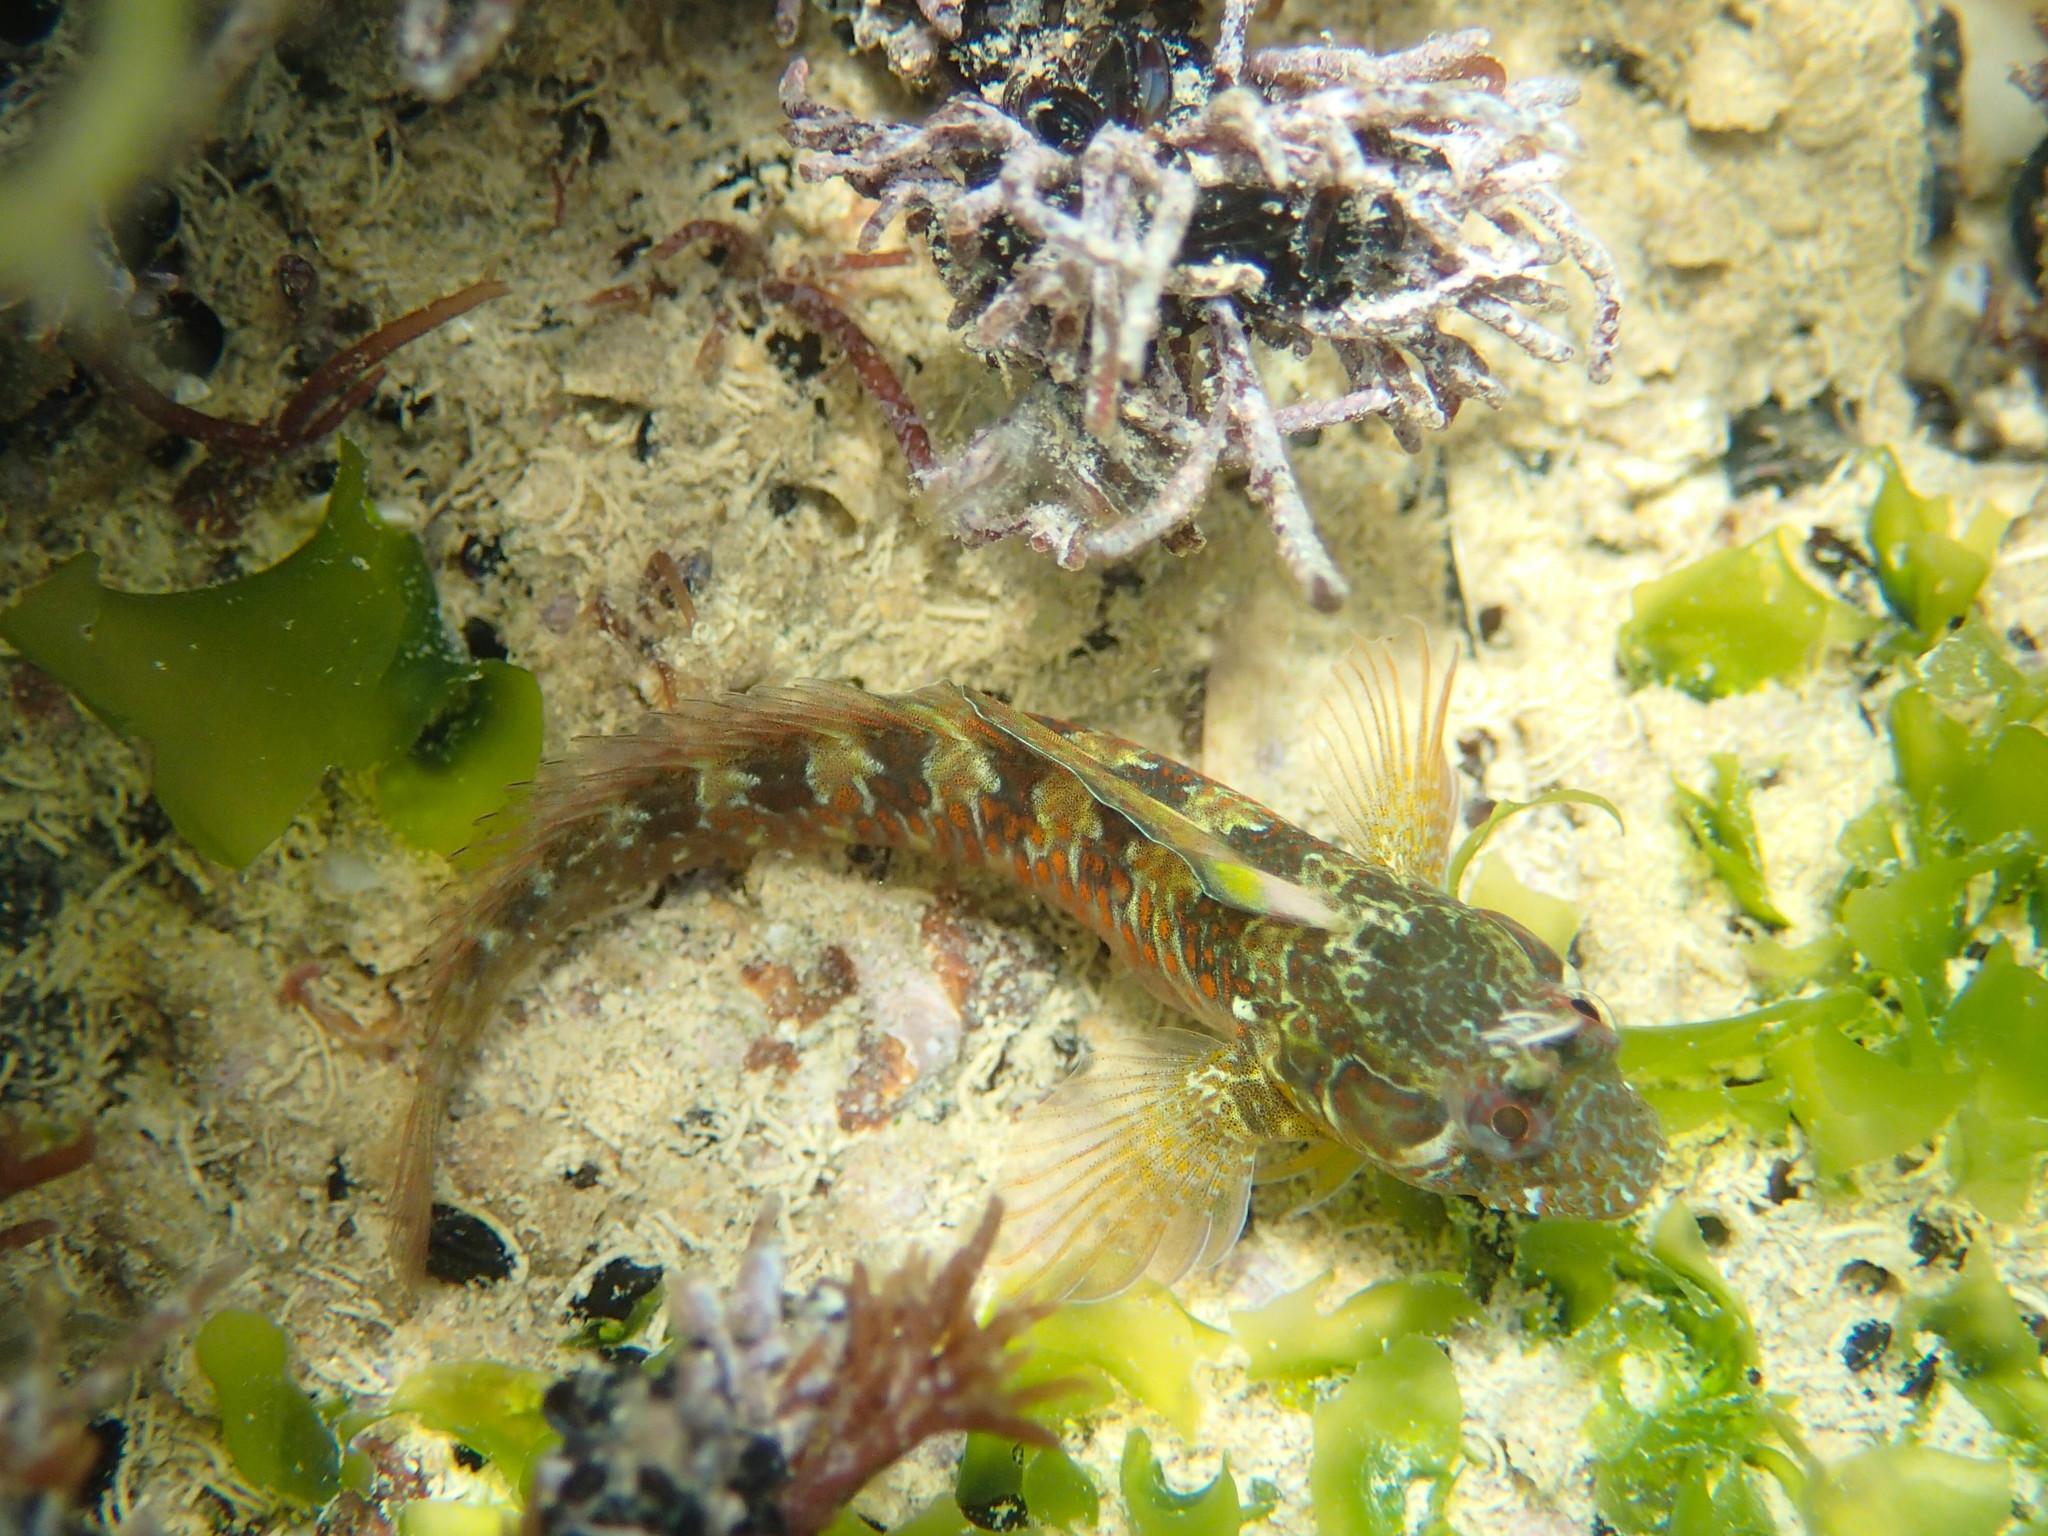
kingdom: Animalia
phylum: Chordata
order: Perciformes
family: Blenniidae
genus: Parablennius
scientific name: Parablennius incognitus
